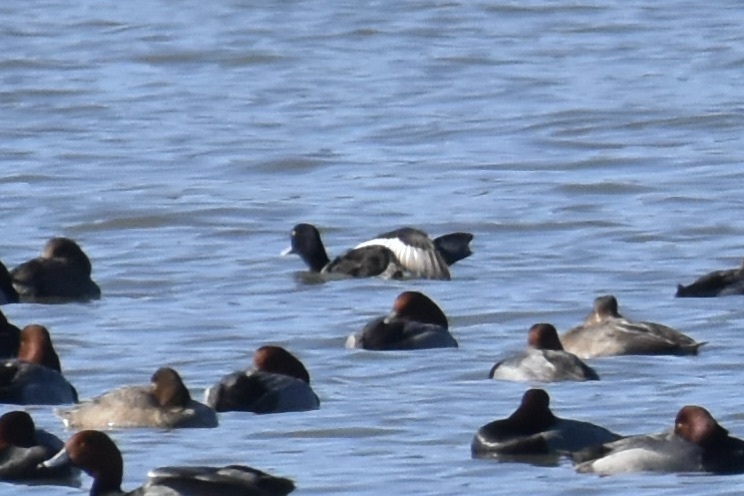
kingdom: Animalia
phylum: Chordata
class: Aves
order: Anseriformes
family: Anatidae
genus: Aythya
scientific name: Aythya collaris
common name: Ring-necked duck
